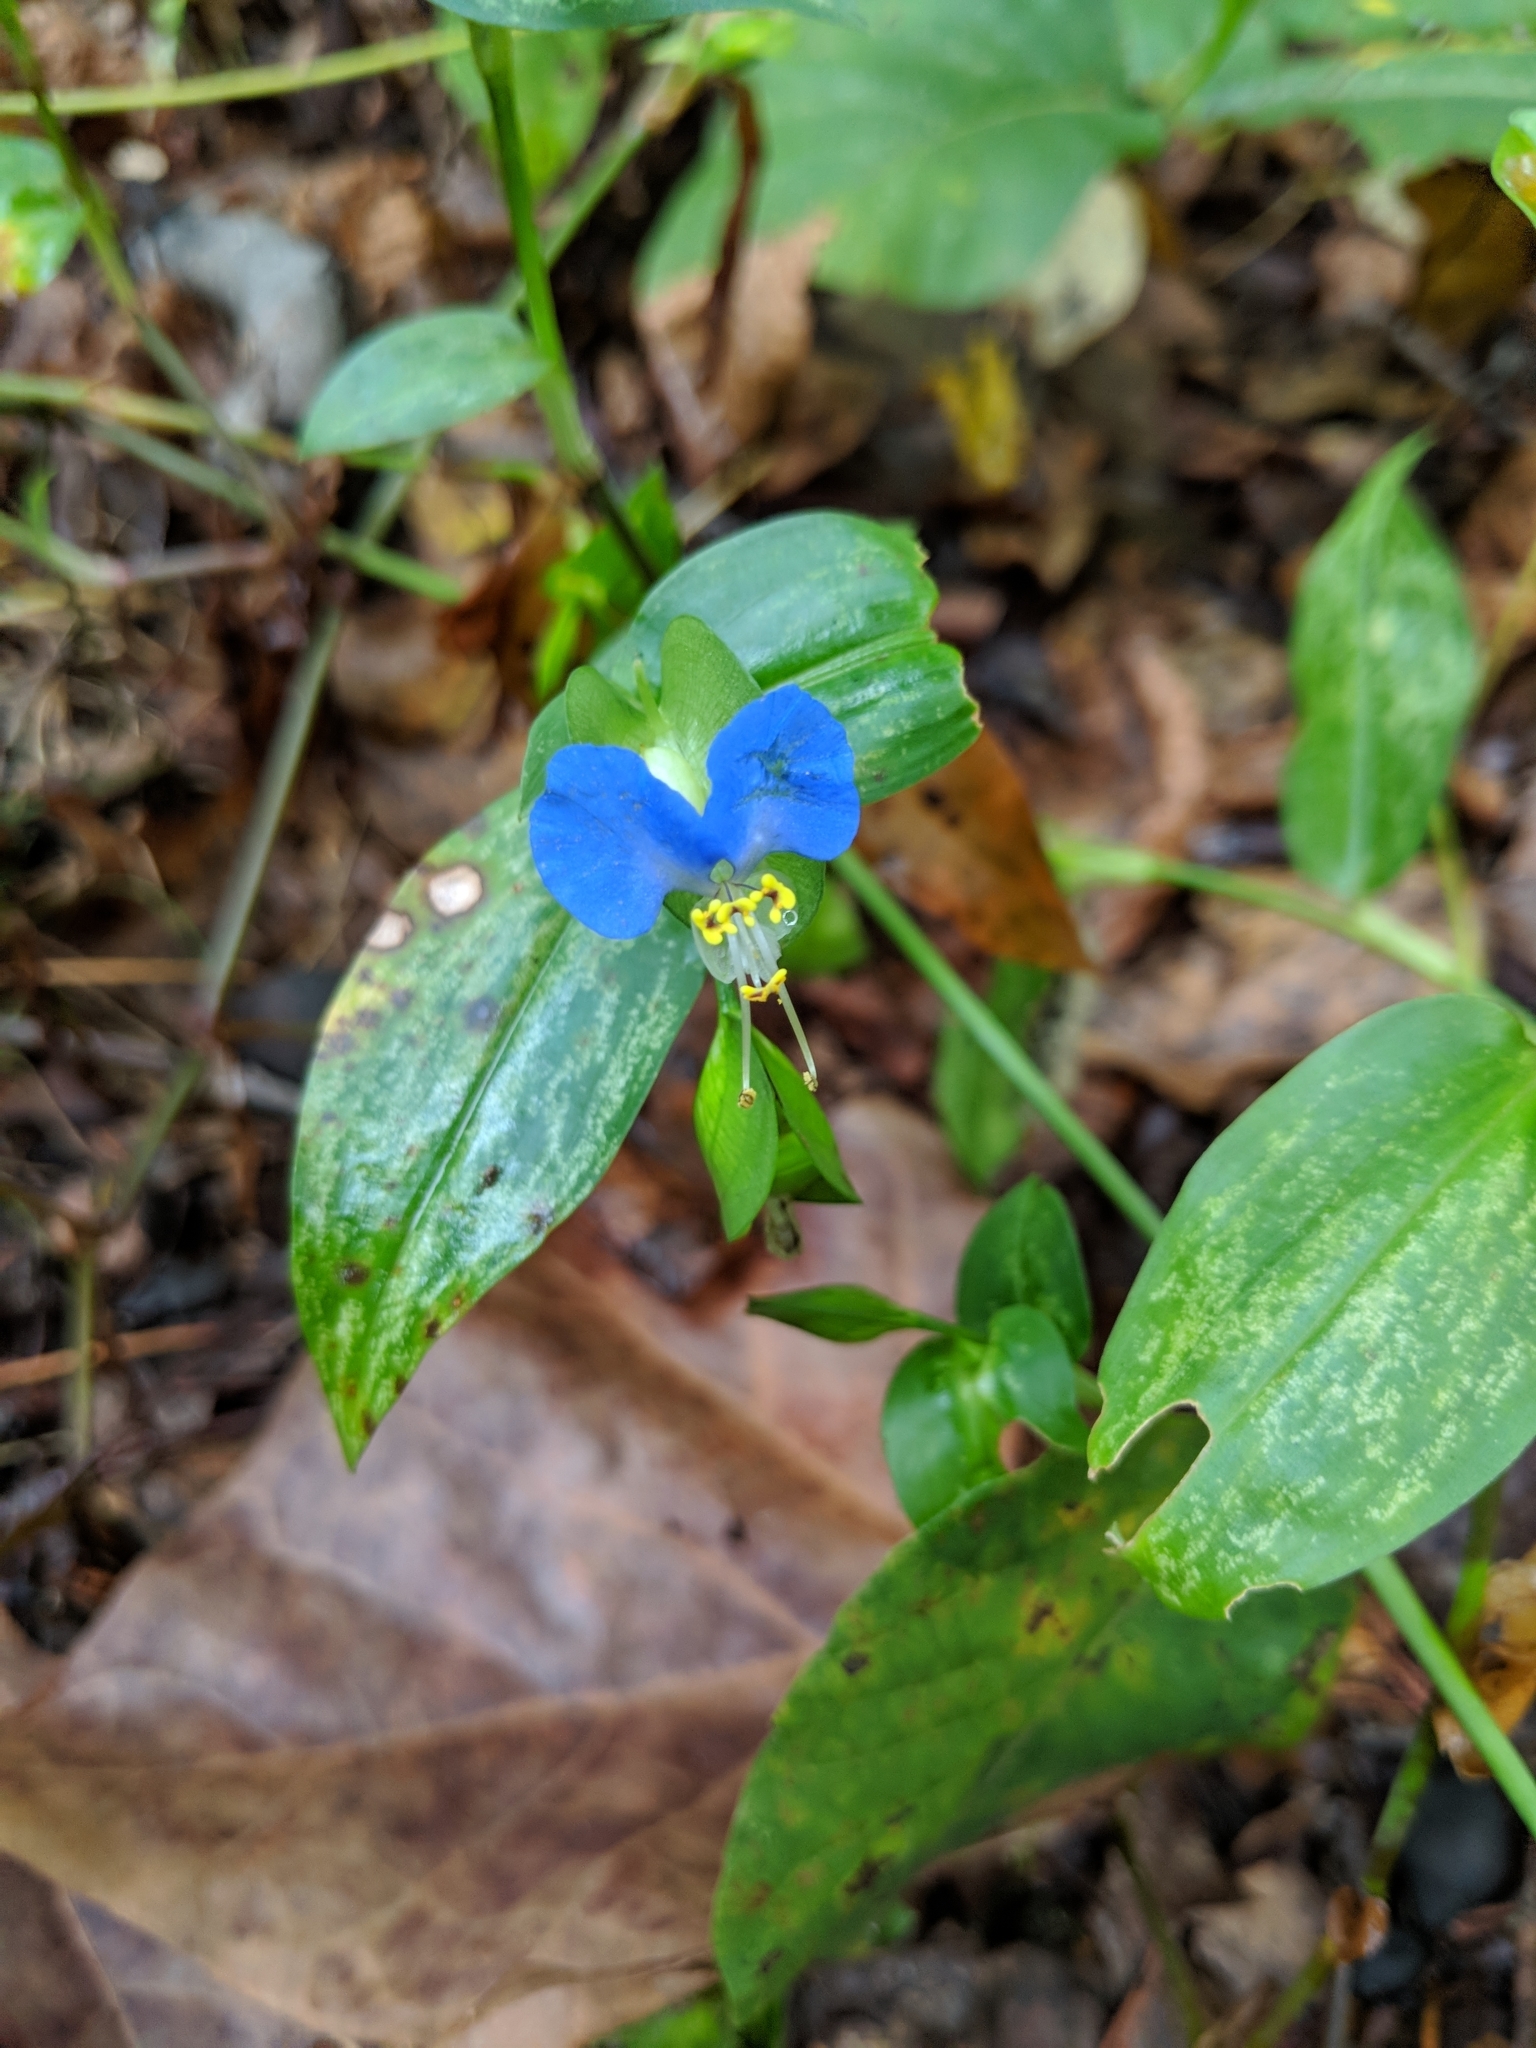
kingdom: Plantae
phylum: Tracheophyta
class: Liliopsida
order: Commelinales
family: Commelinaceae
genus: Commelina
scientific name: Commelina communis
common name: Asiatic dayflower
